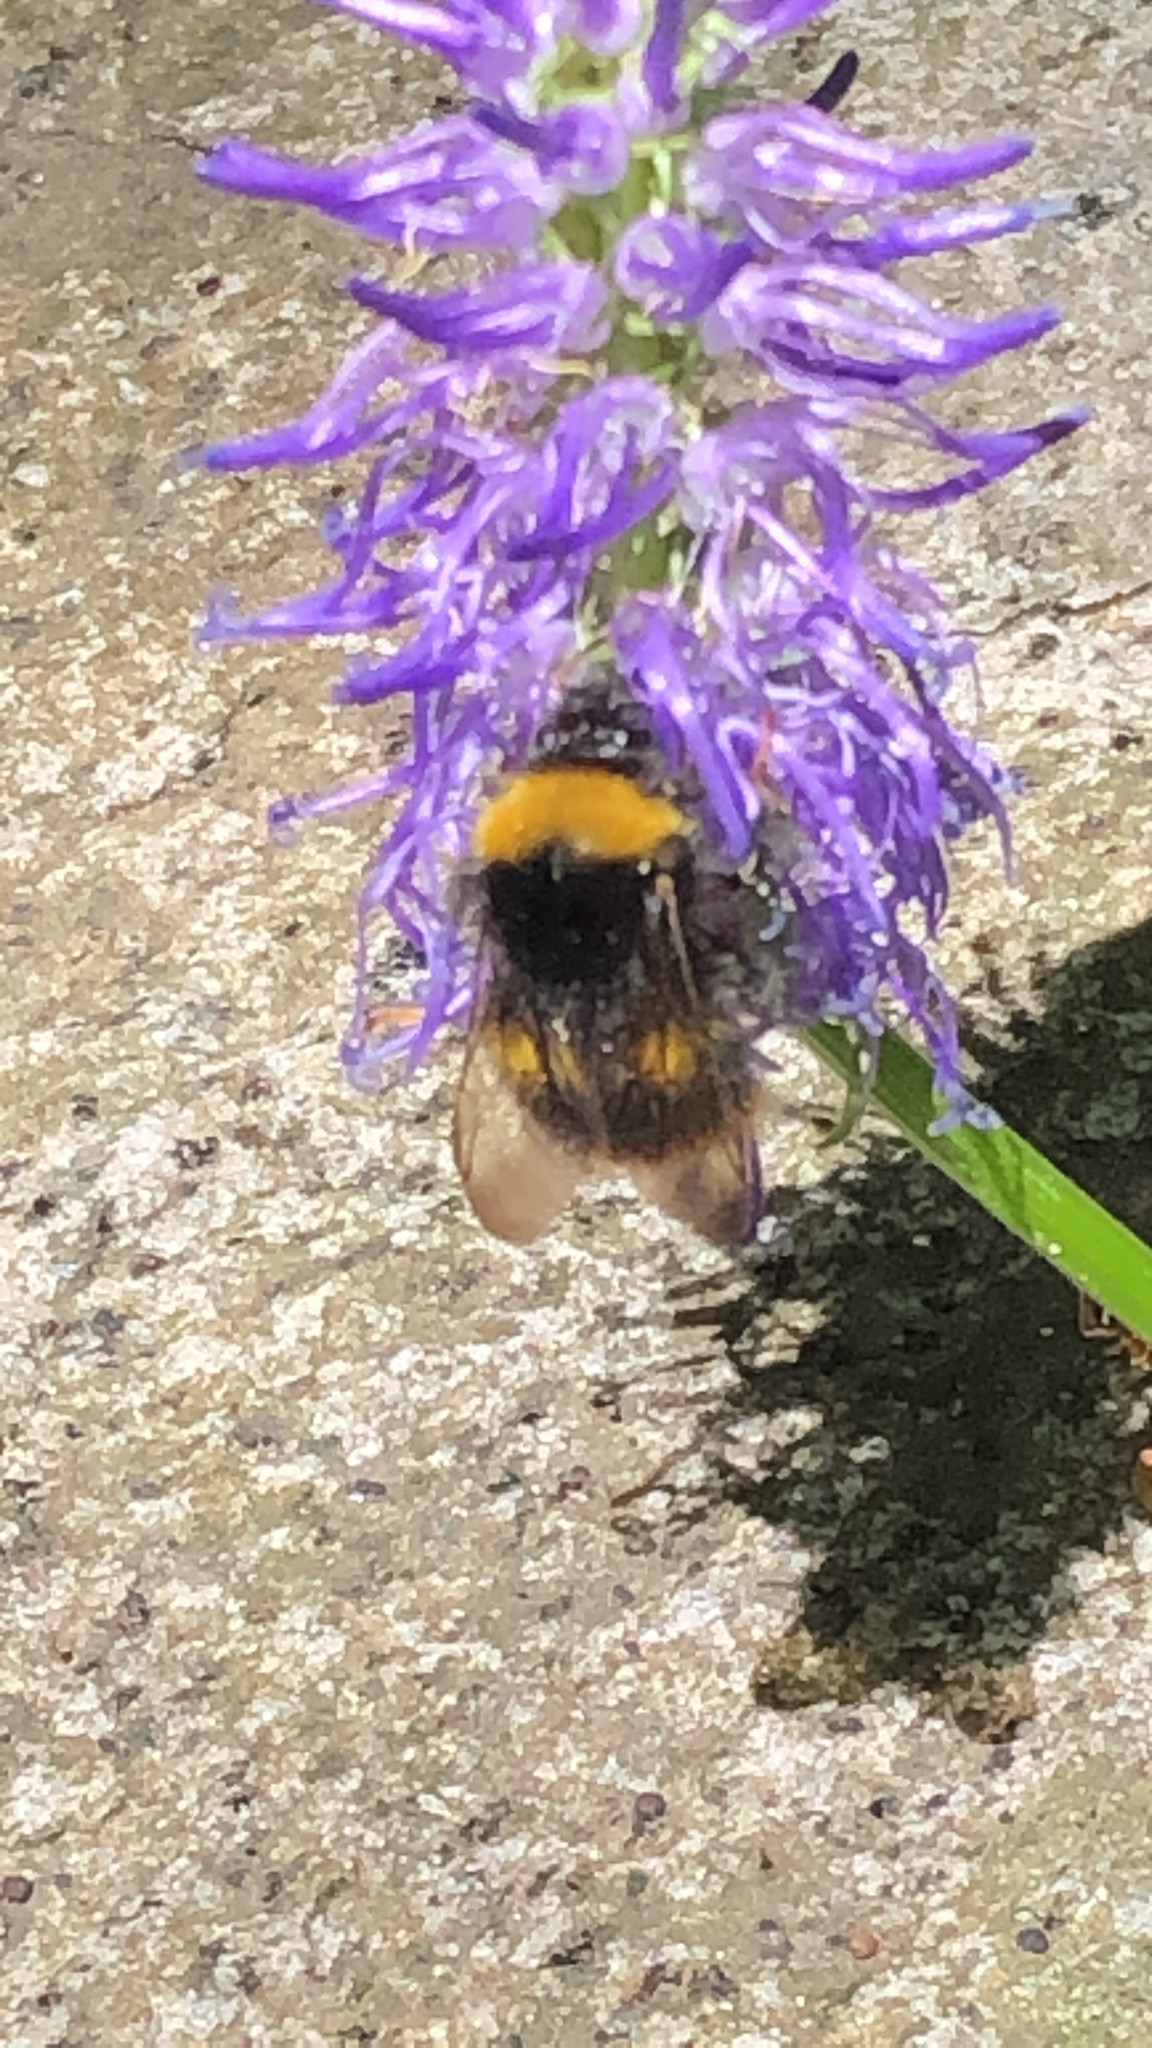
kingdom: Animalia
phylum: Arthropoda
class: Insecta
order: Hymenoptera
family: Apidae
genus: Bombus
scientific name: Bombus pratorum
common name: Early humble-bee
